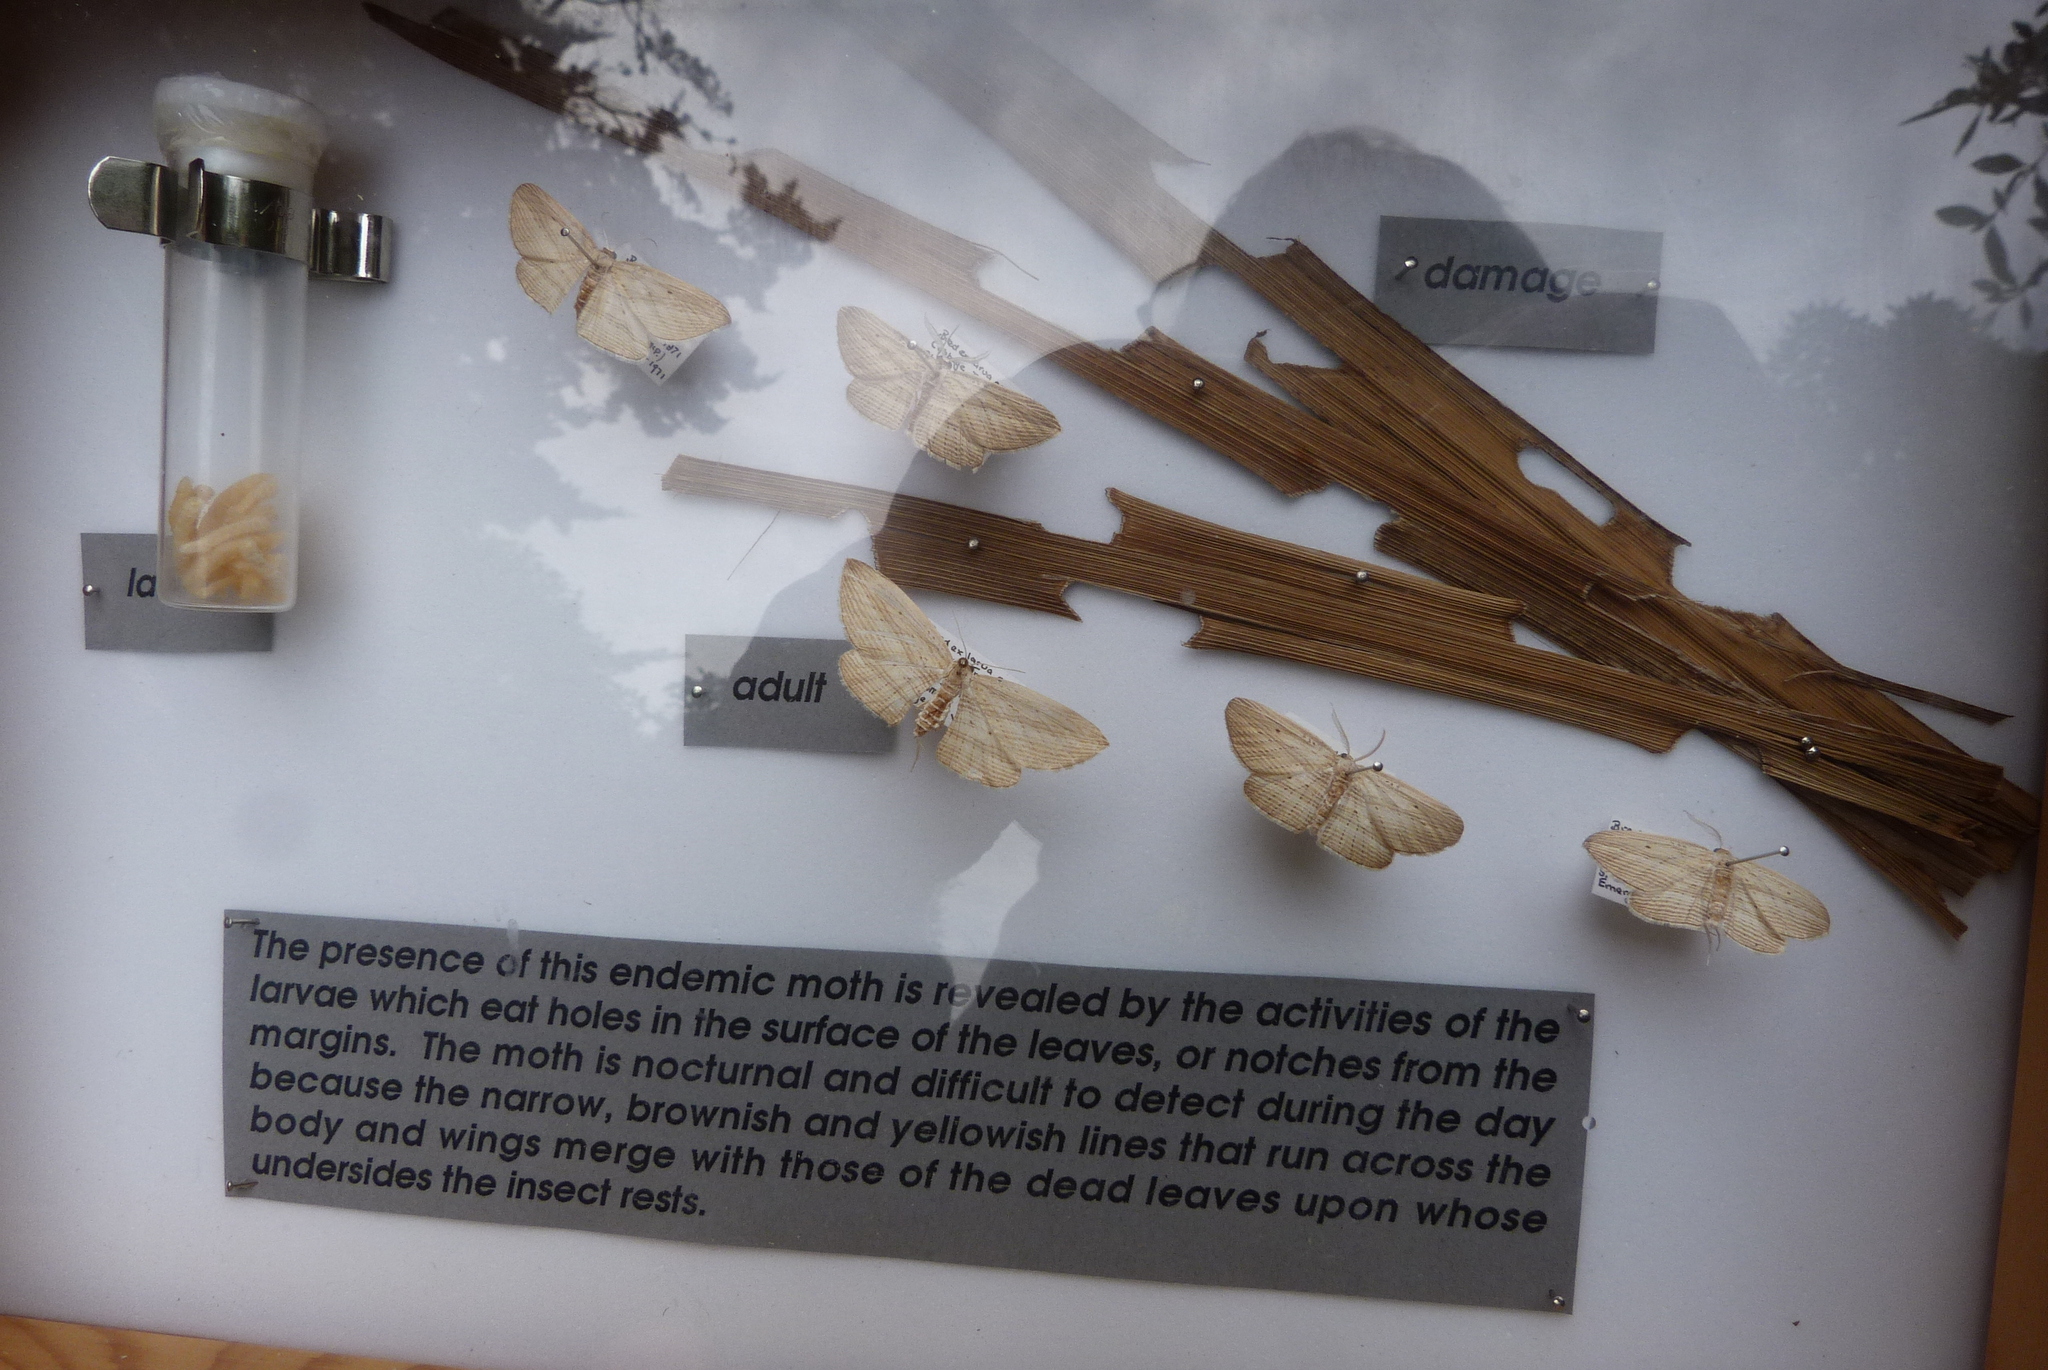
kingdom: Animalia
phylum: Arthropoda
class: Insecta
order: Lepidoptera
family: Geometridae
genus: Epiphryne
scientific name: Epiphryne verriculata
